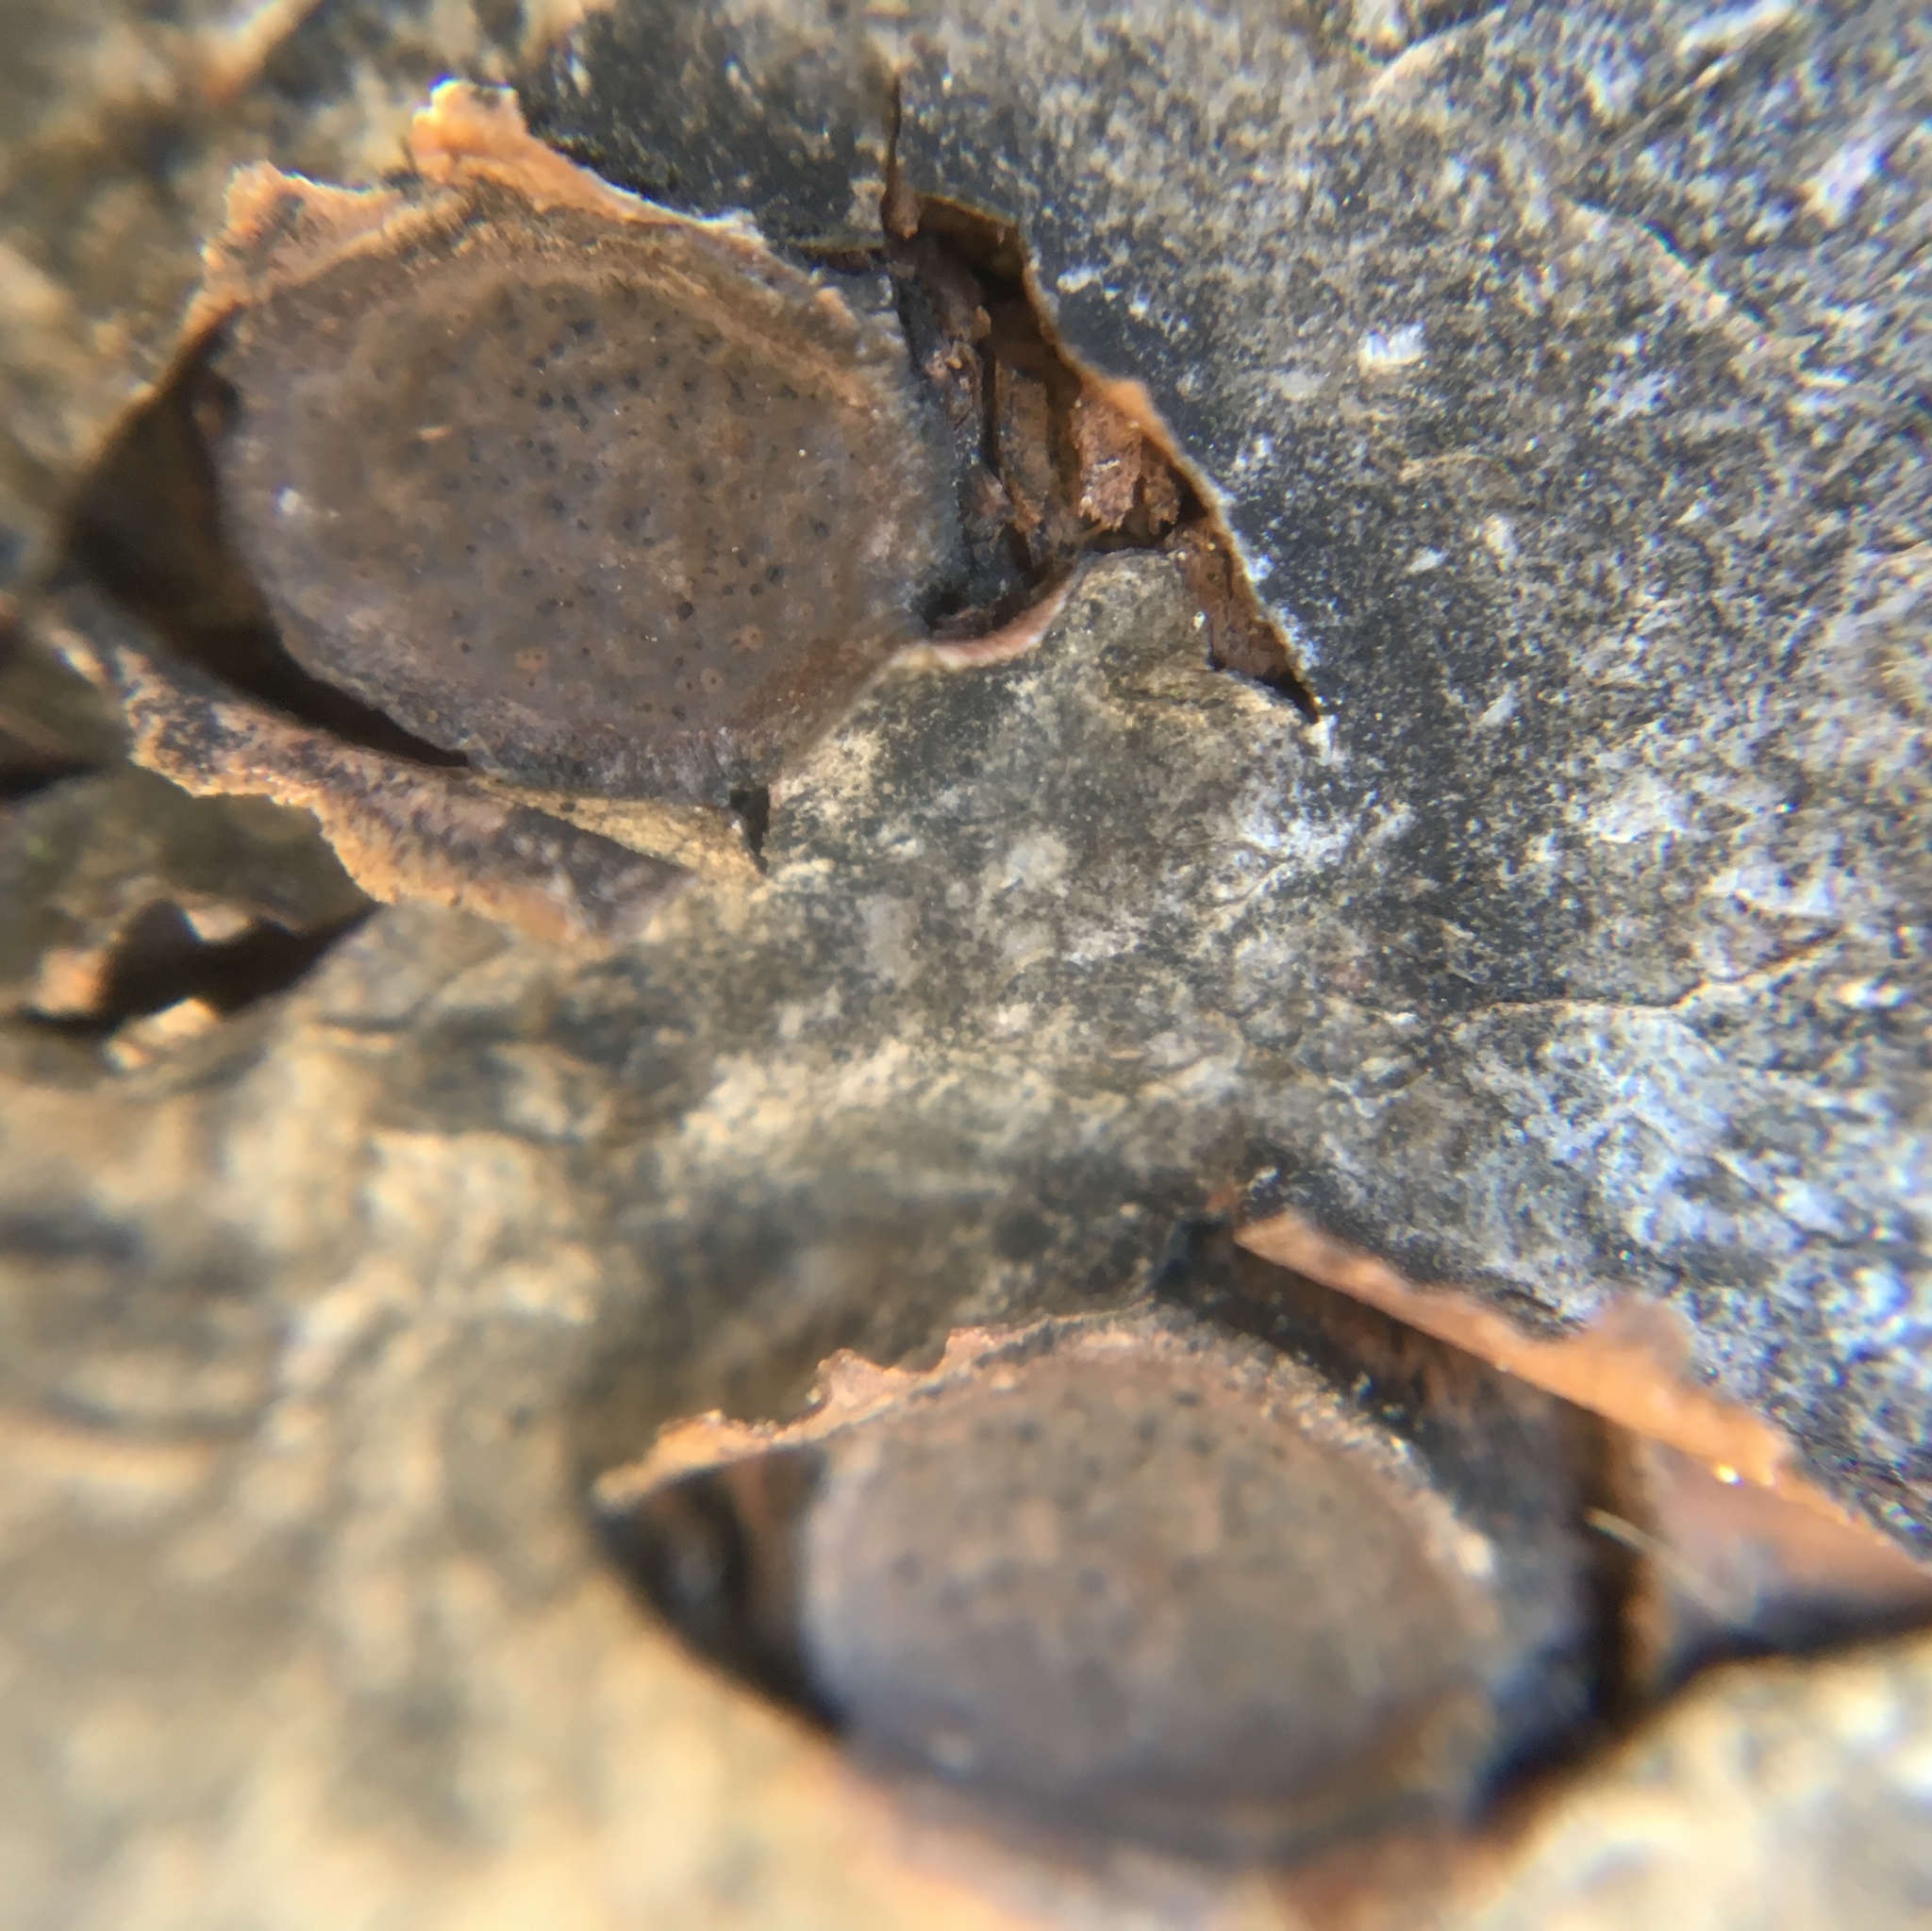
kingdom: Fungi
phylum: Ascomycota
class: Sordariomycetes
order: Xylariales
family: Graphostromataceae
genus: Biscogniauxia
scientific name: Biscogniauxia marginata
